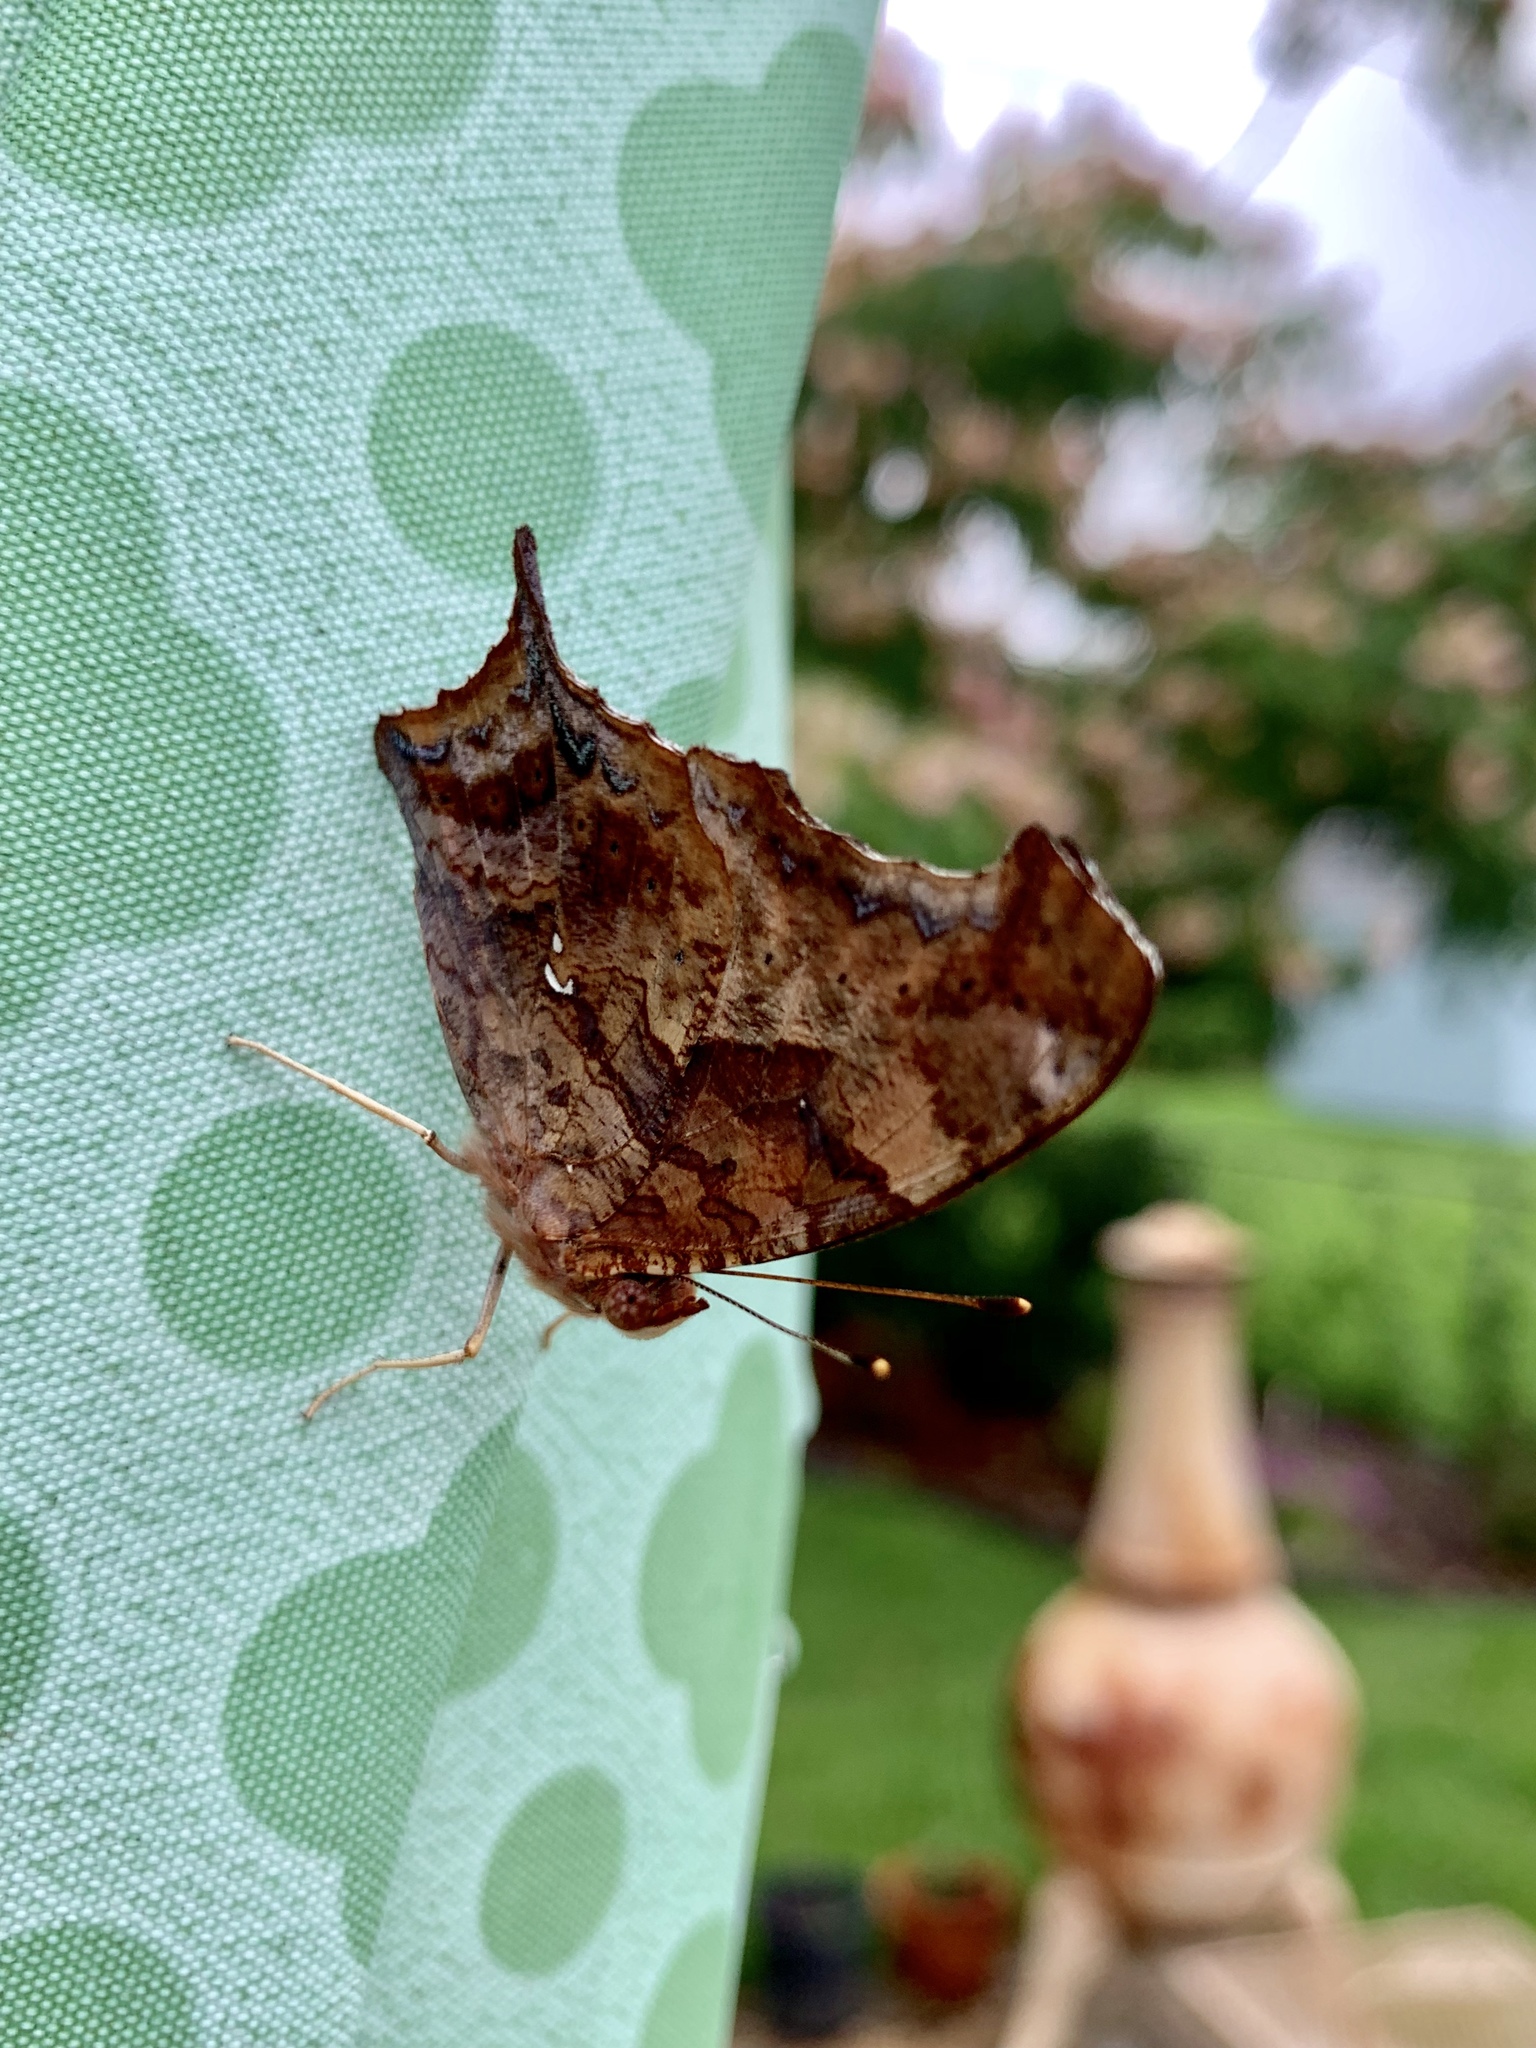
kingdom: Animalia
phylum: Arthropoda
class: Insecta
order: Lepidoptera
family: Nymphalidae
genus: Polygonia
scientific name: Polygonia interrogationis
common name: Question mark
